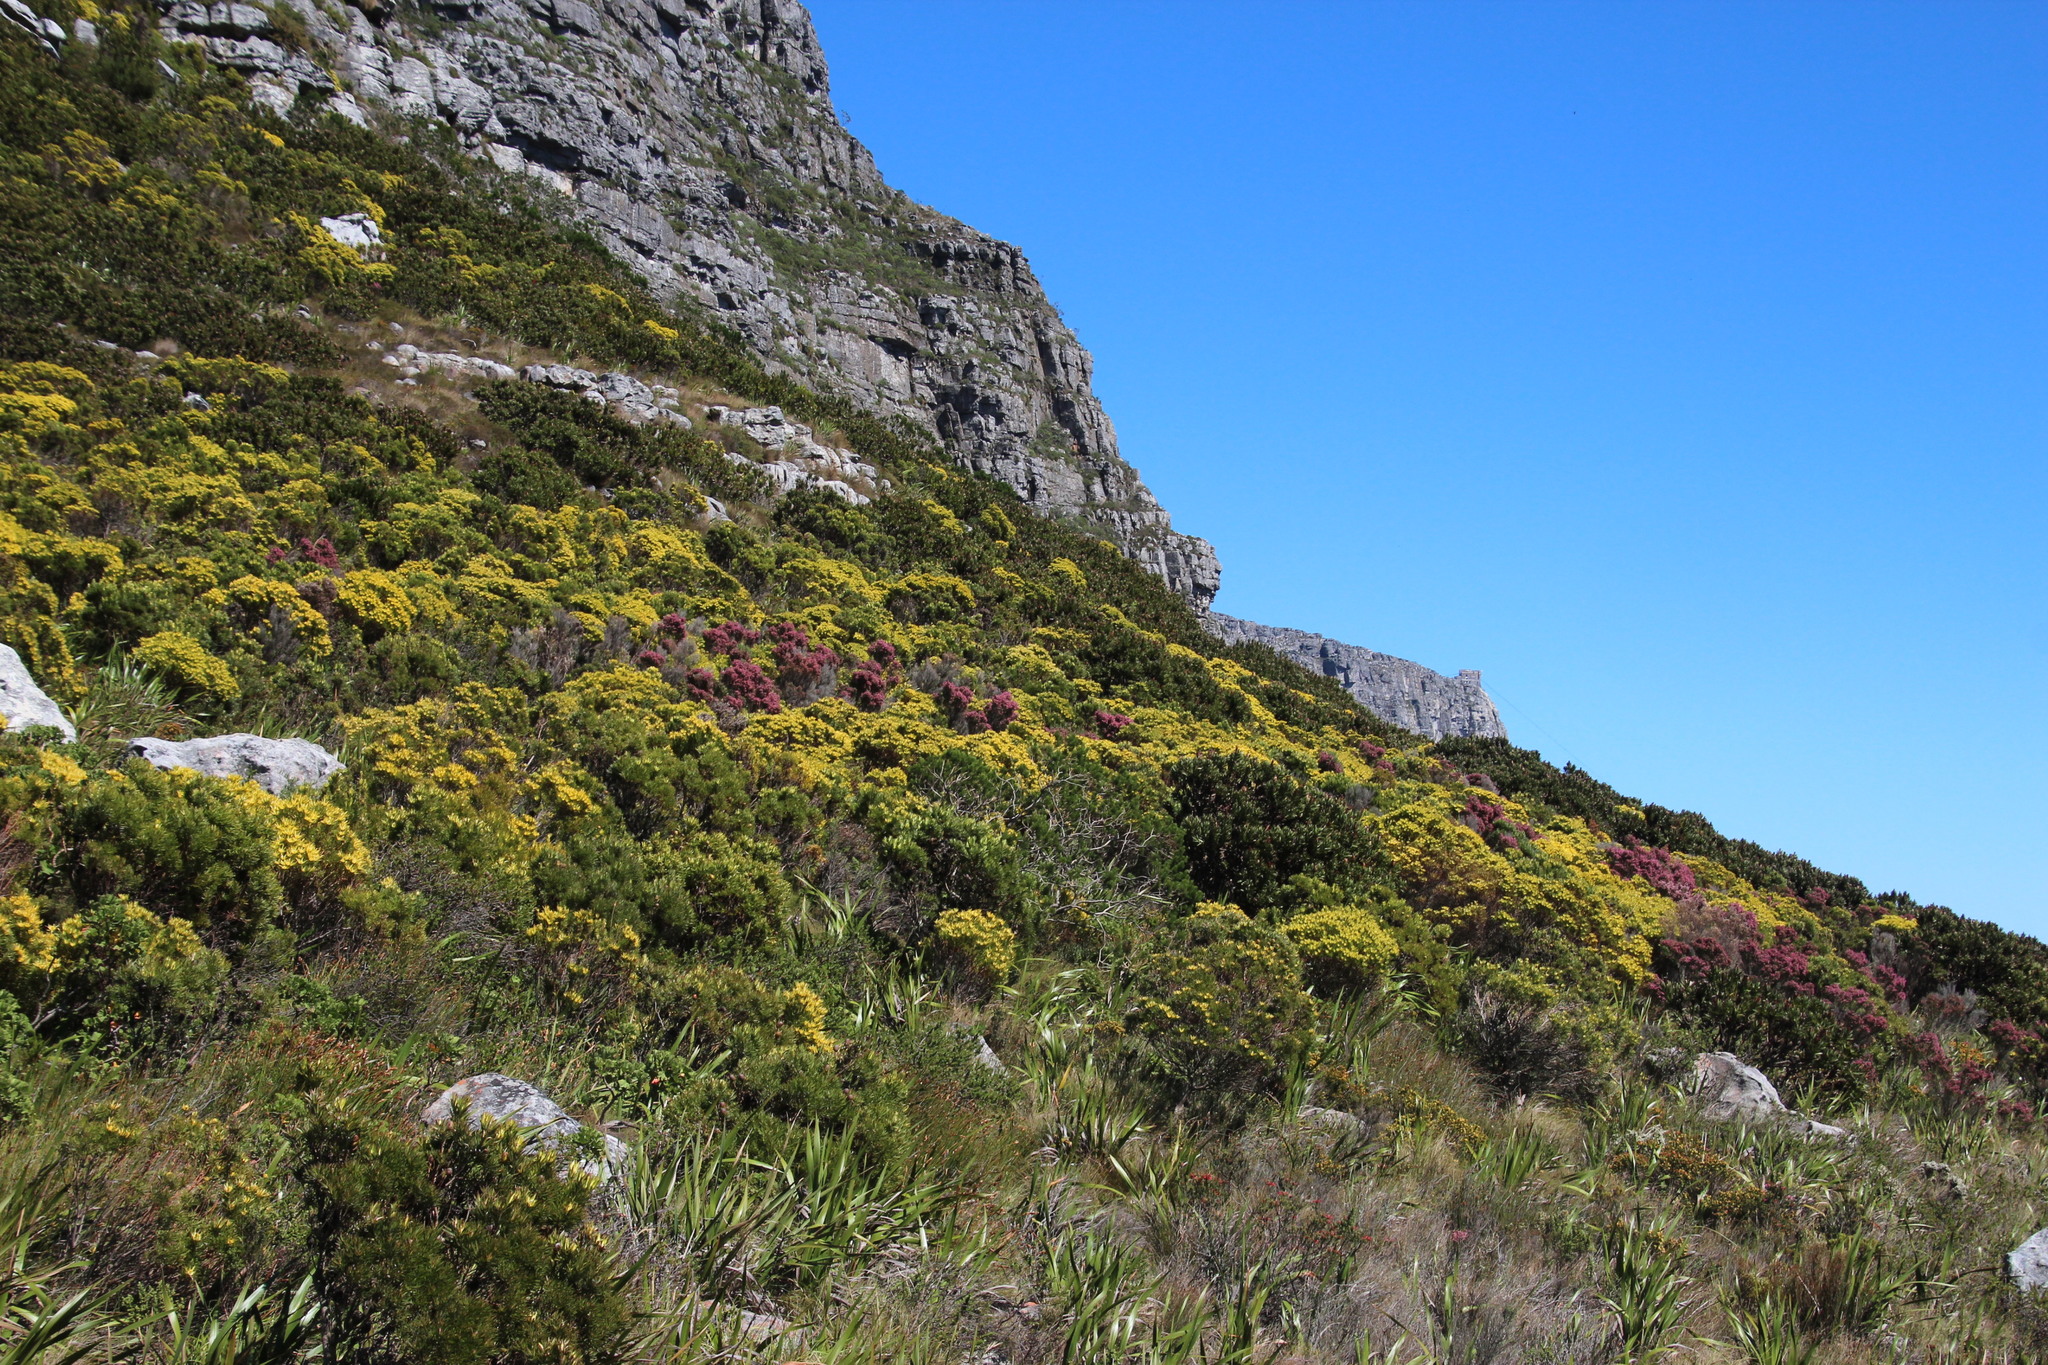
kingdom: Plantae
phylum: Tracheophyta
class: Magnoliopsida
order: Ericales
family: Ericaceae
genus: Erica
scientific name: Erica baccans
